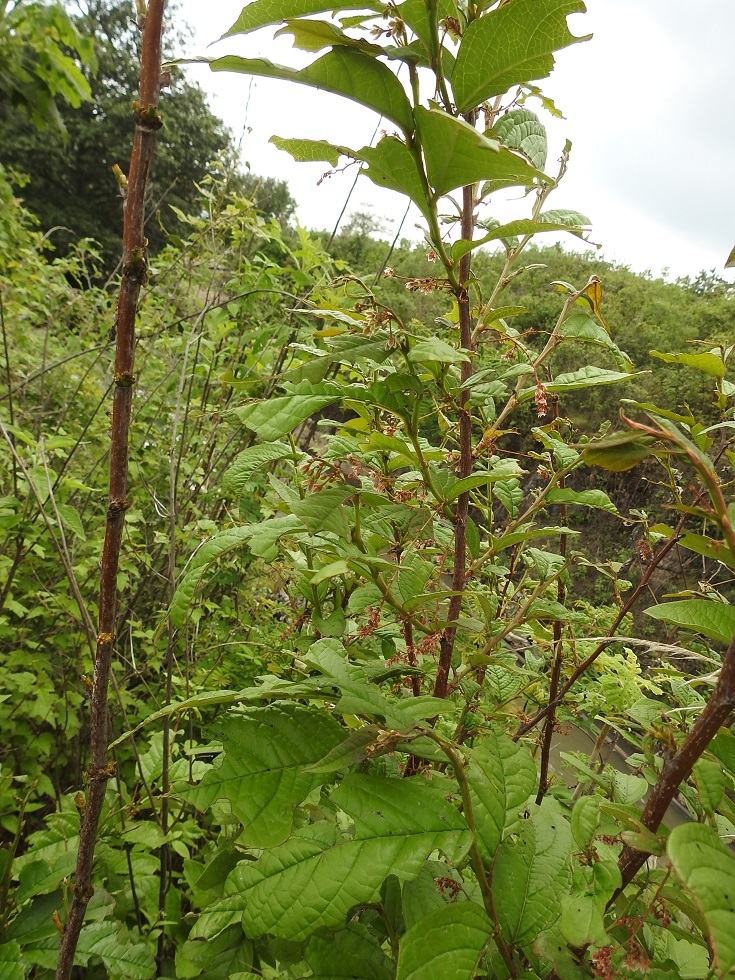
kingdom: Plantae
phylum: Tracheophyta
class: Magnoliopsida
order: Malpighiales
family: Phyllanthaceae
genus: Phyllanthus
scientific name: Phyllanthus grandifolius
